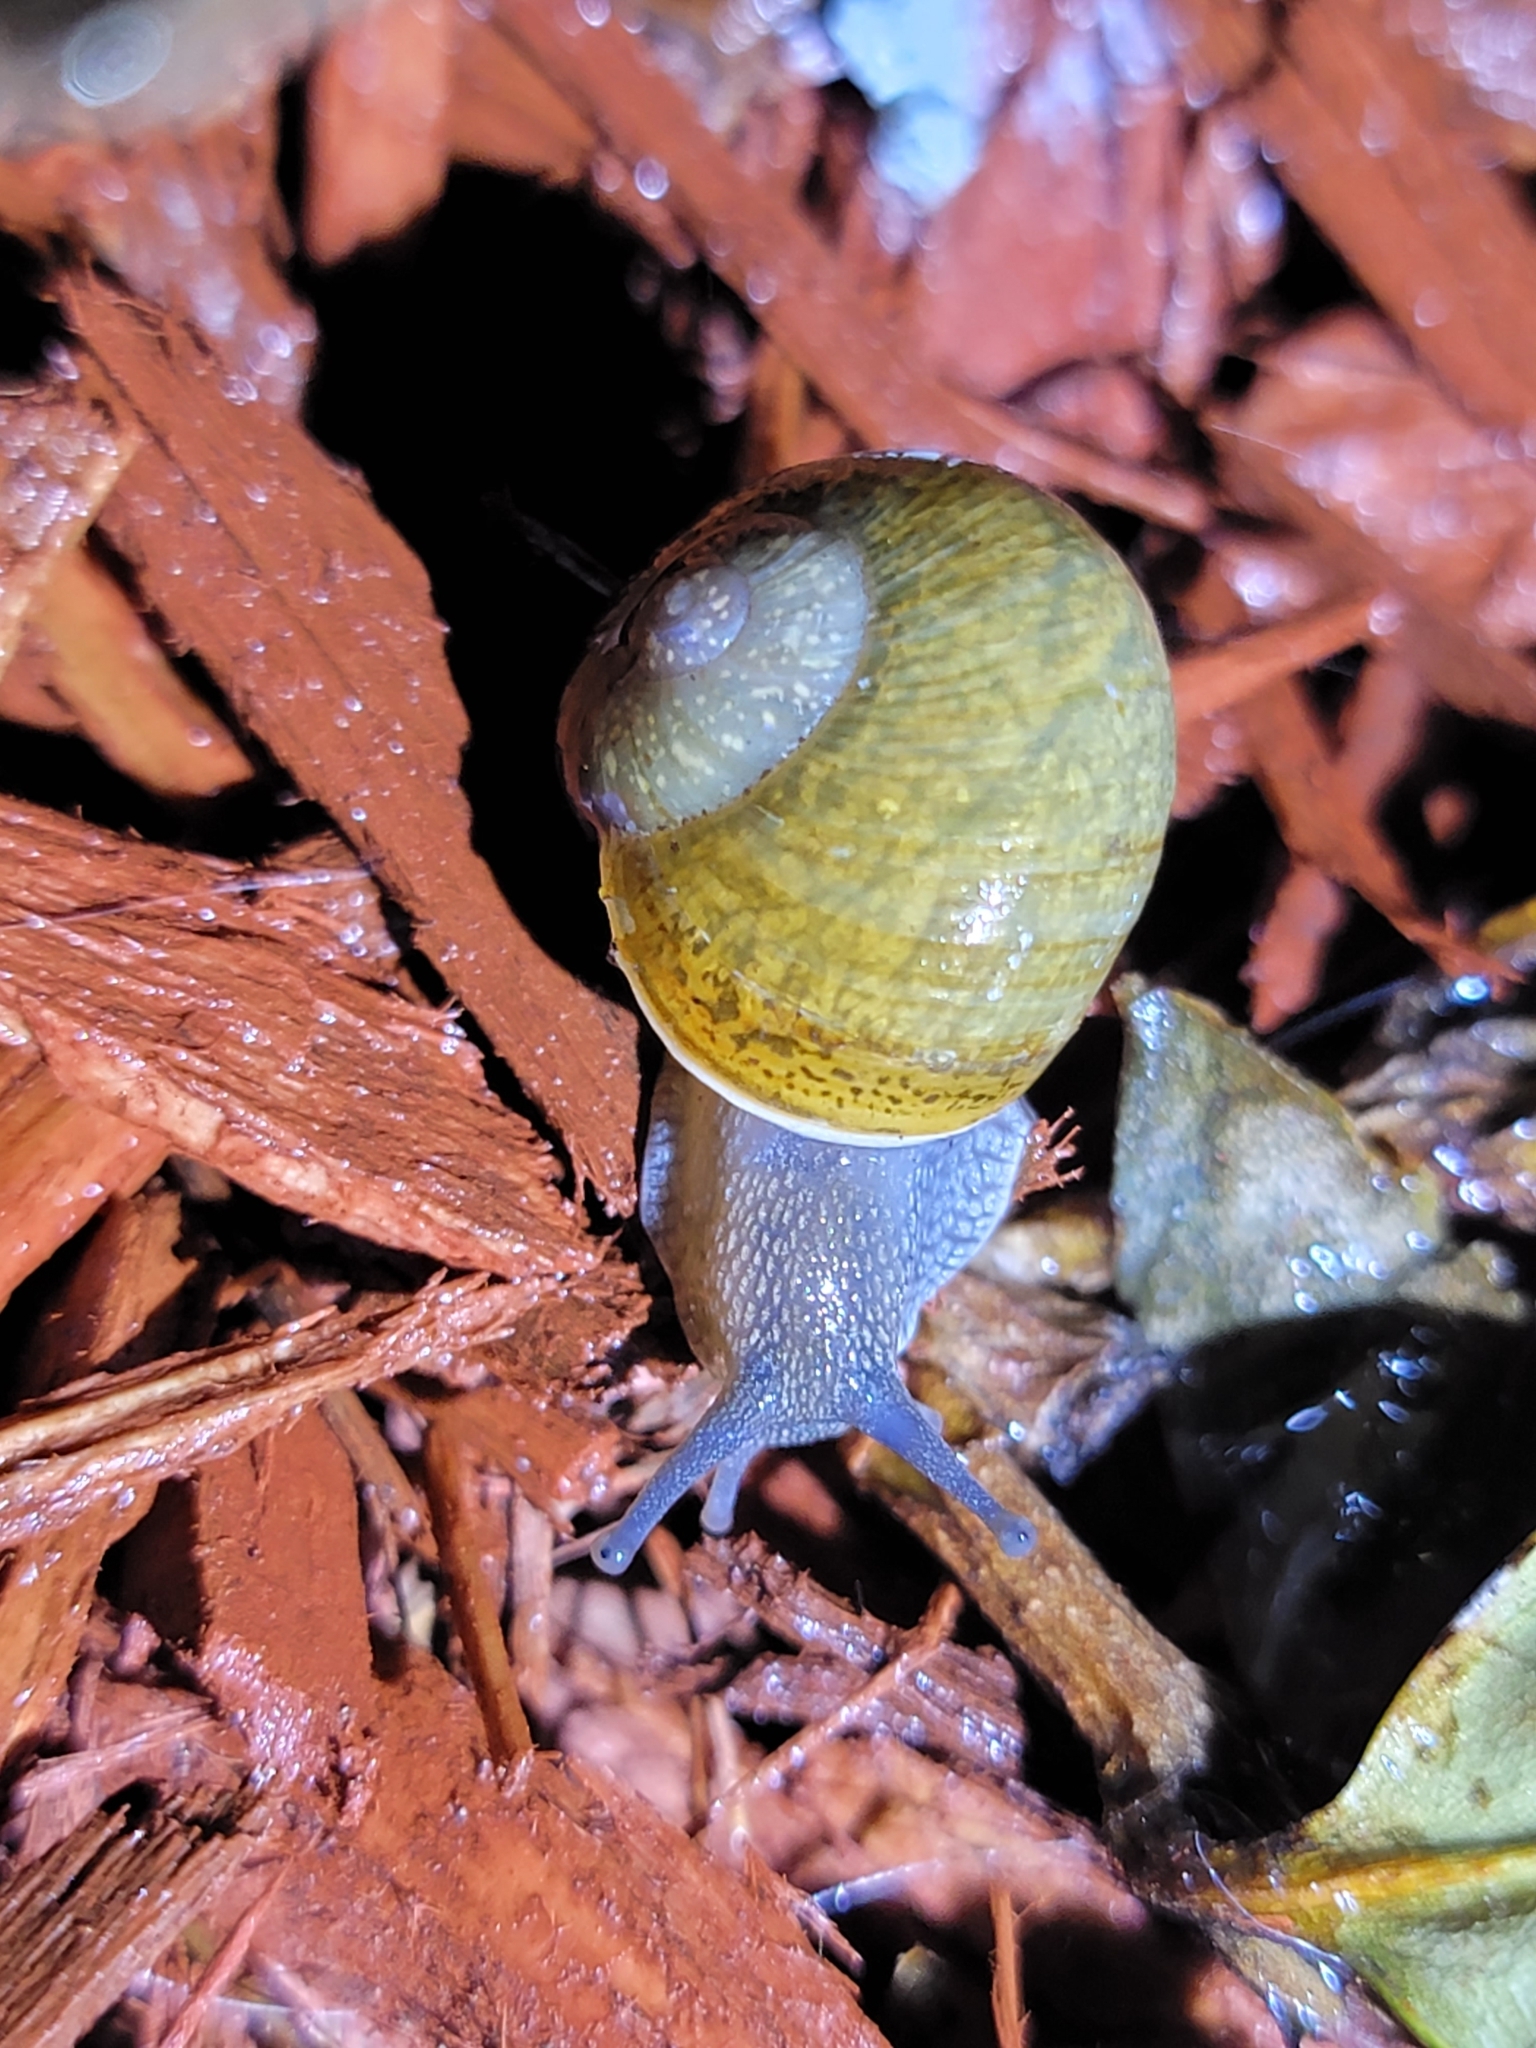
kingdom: Animalia
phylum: Mollusca
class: Gastropoda
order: Stylommatophora
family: Zachrysiidae
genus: Zachrysia
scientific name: Zachrysia provisoria
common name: Garden zachrysia
